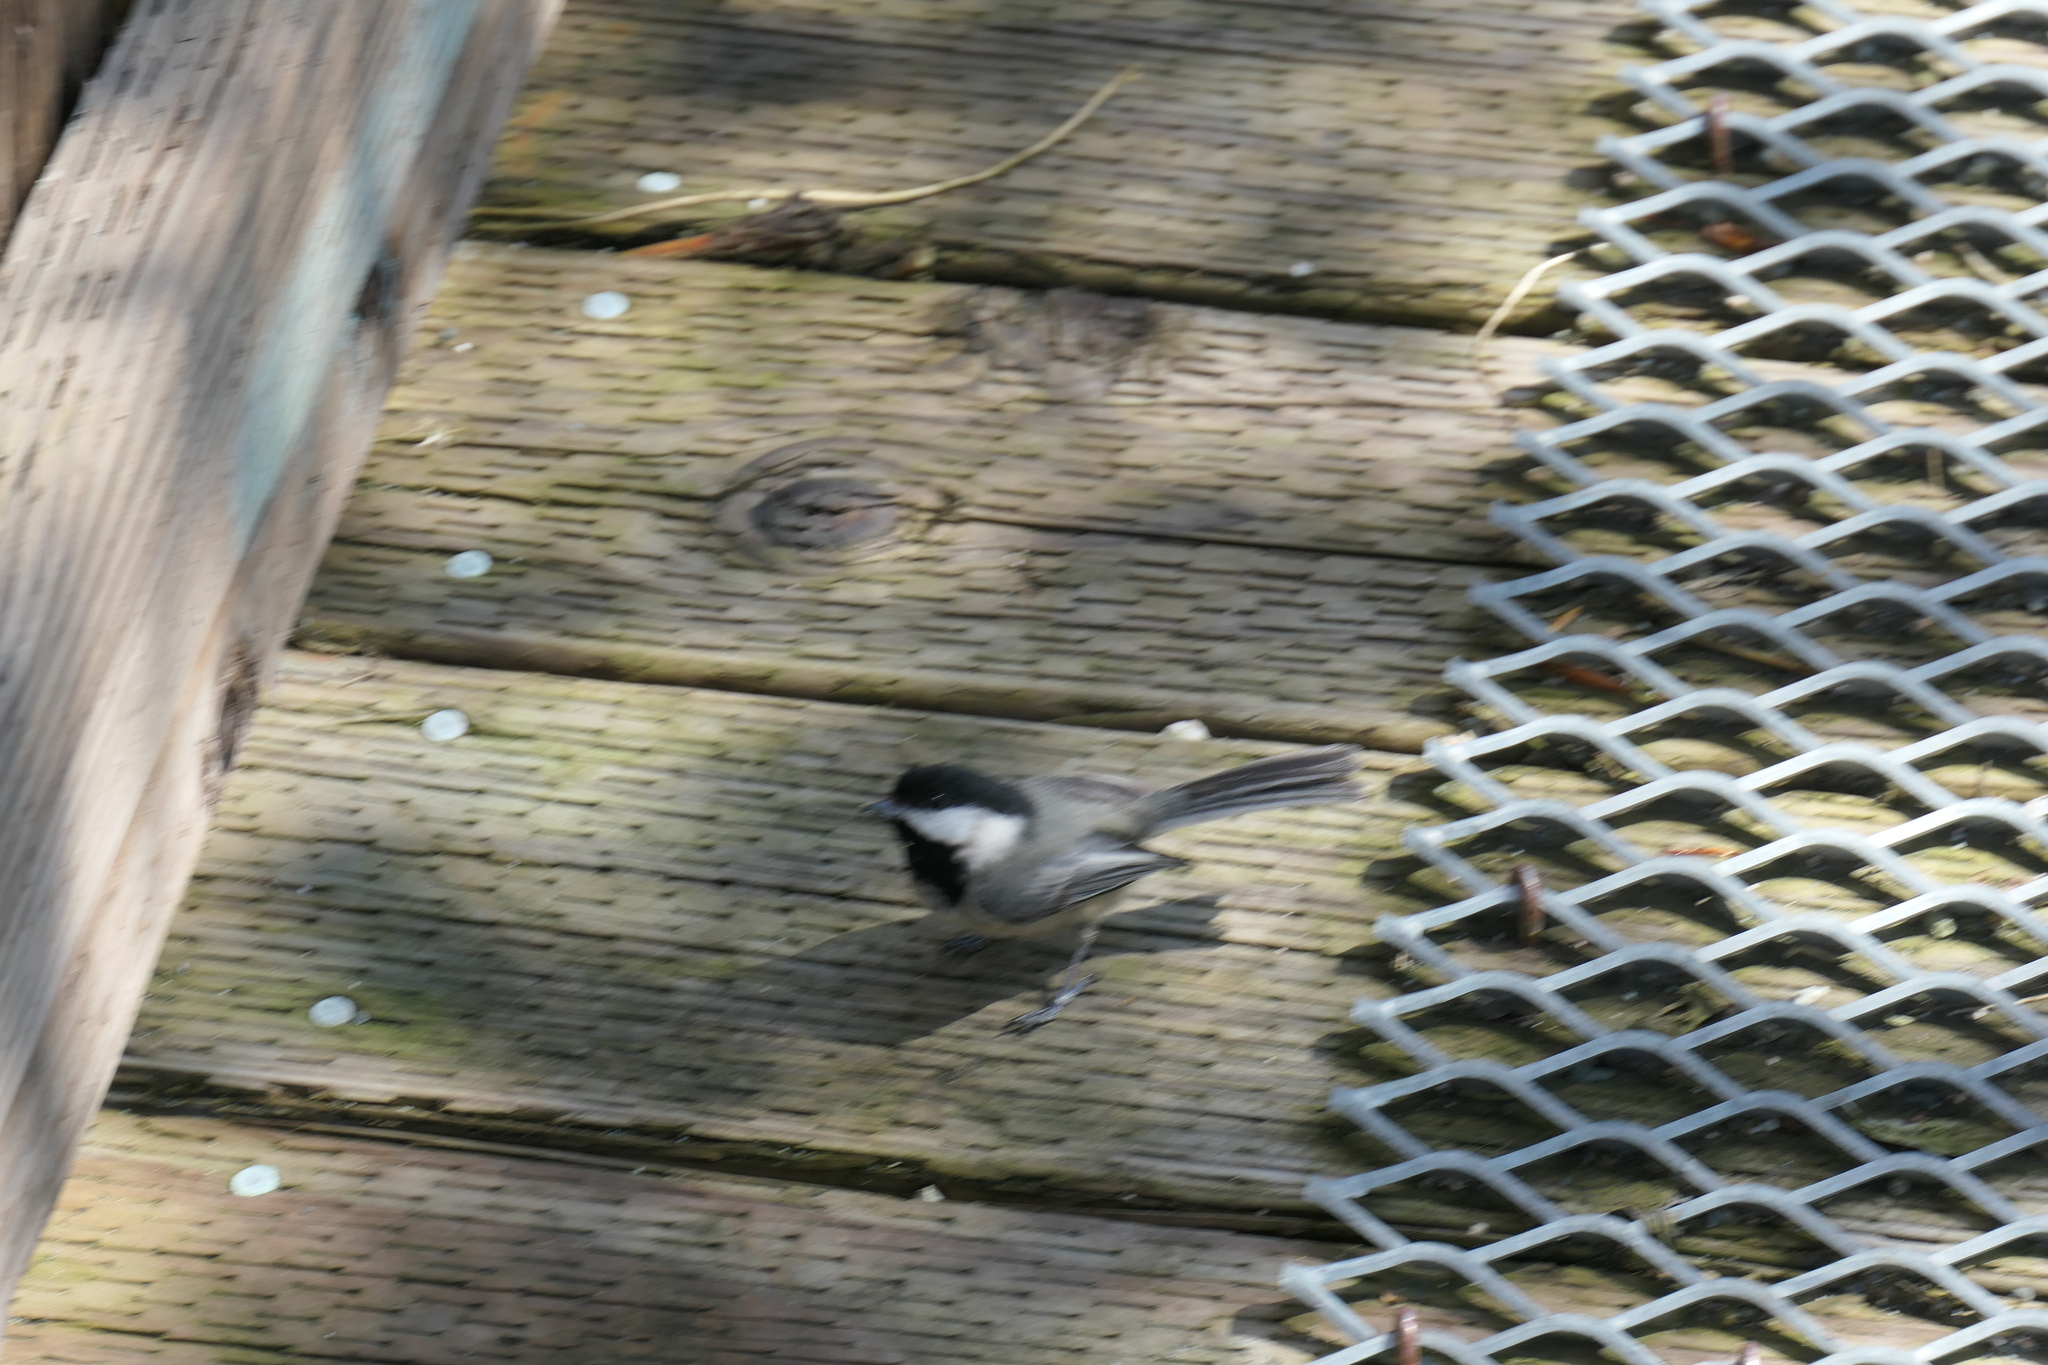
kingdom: Animalia
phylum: Chordata
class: Aves
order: Passeriformes
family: Paridae
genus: Poecile
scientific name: Poecile atricapillus
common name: Black-capped chickadee
